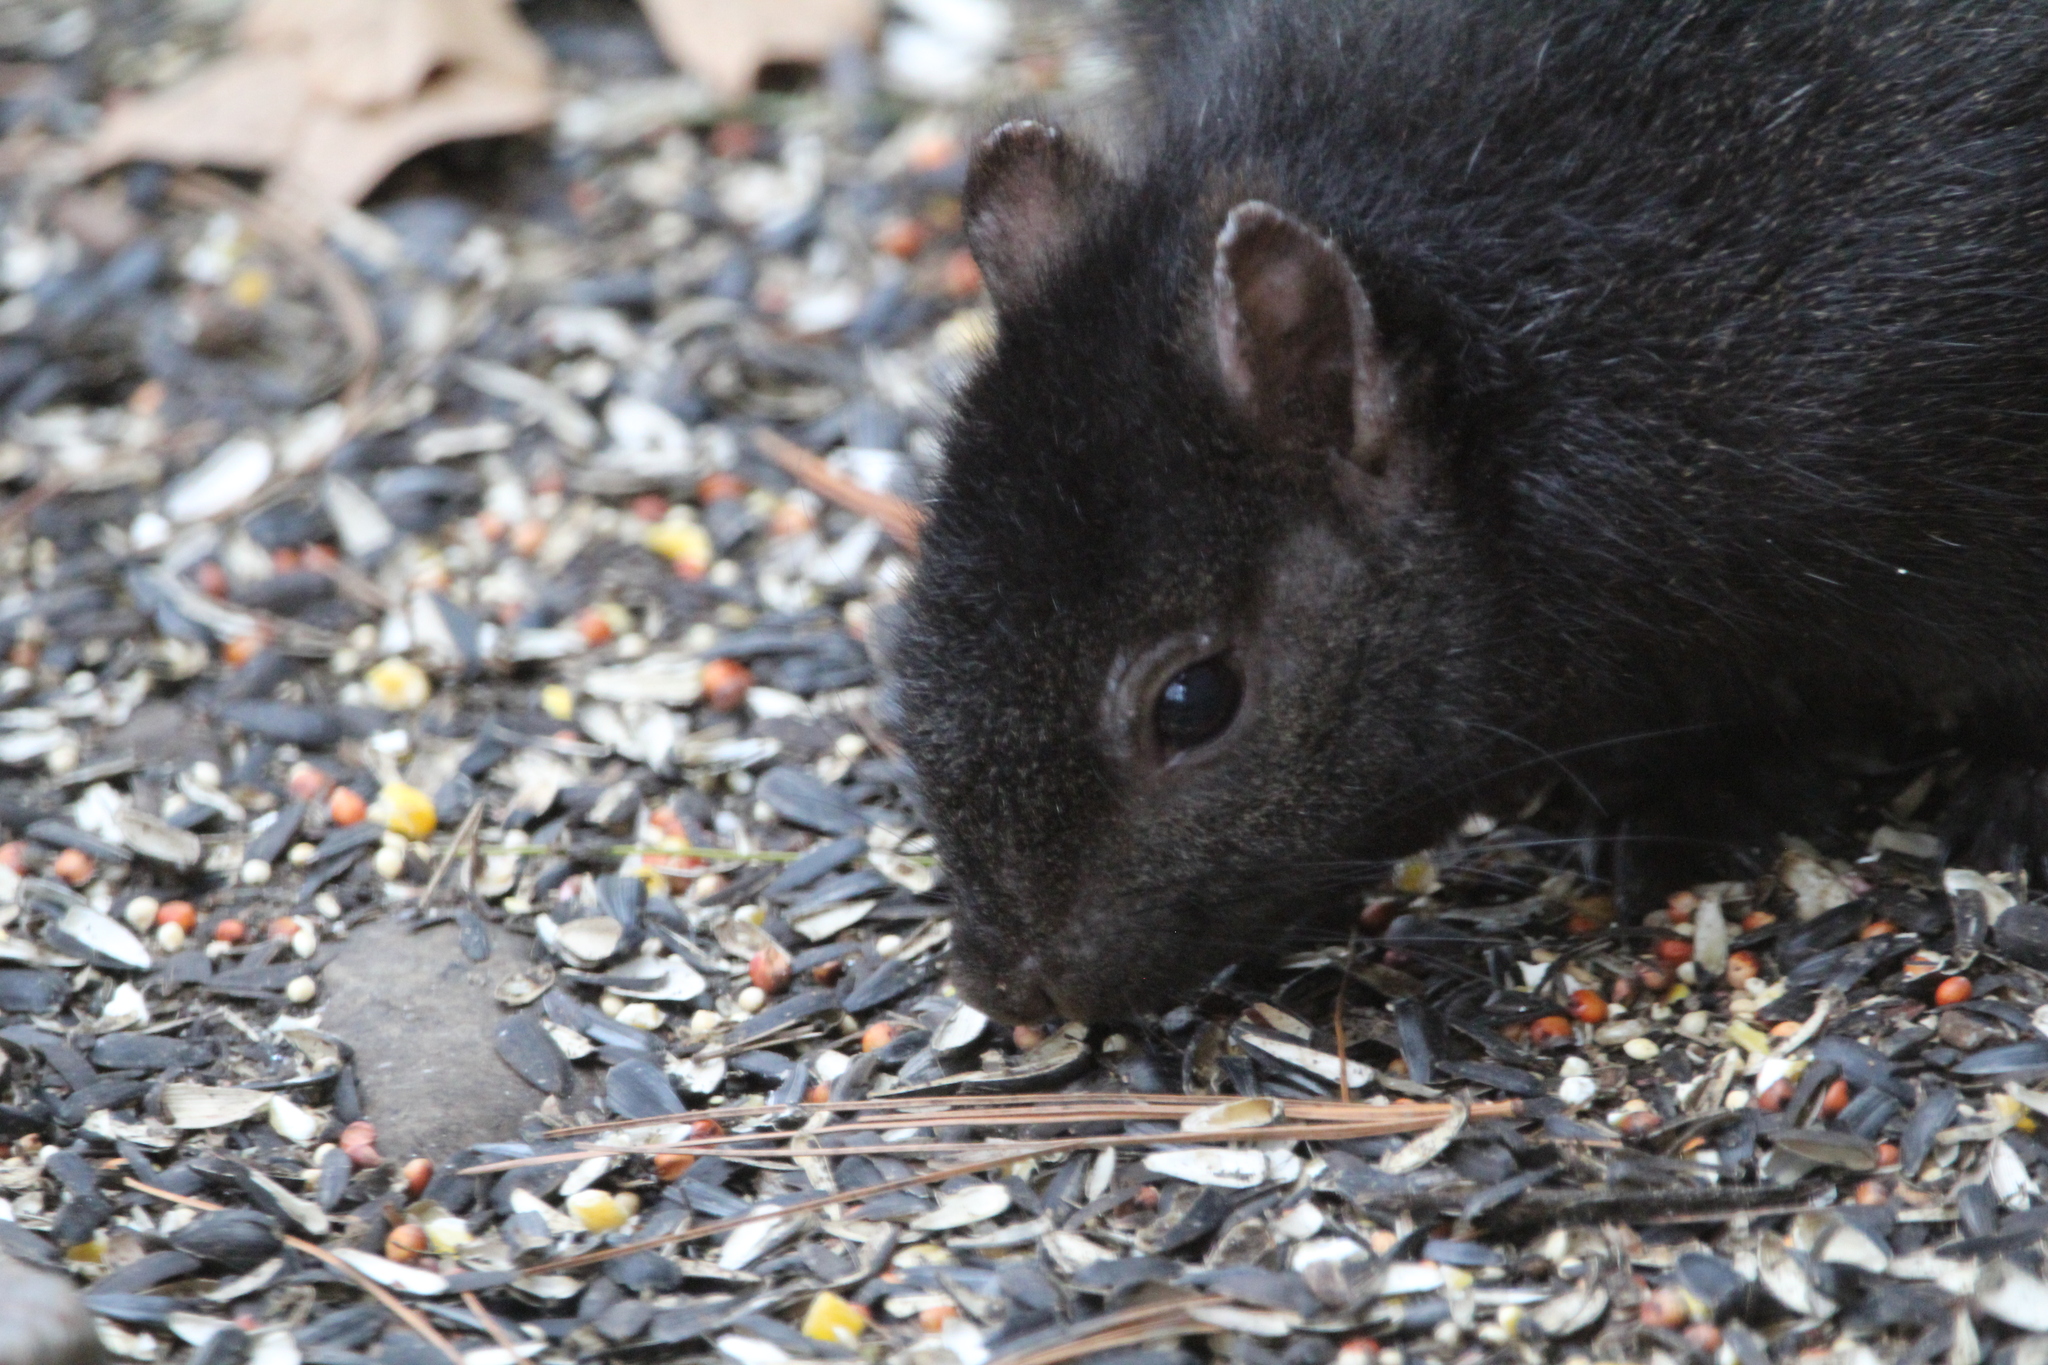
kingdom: Animalia
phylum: Chordata
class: Mammalia
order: Rodentia
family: Sciuridae
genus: Sciurus
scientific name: Sciurus carolinensis
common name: Eastern gray squirrel
